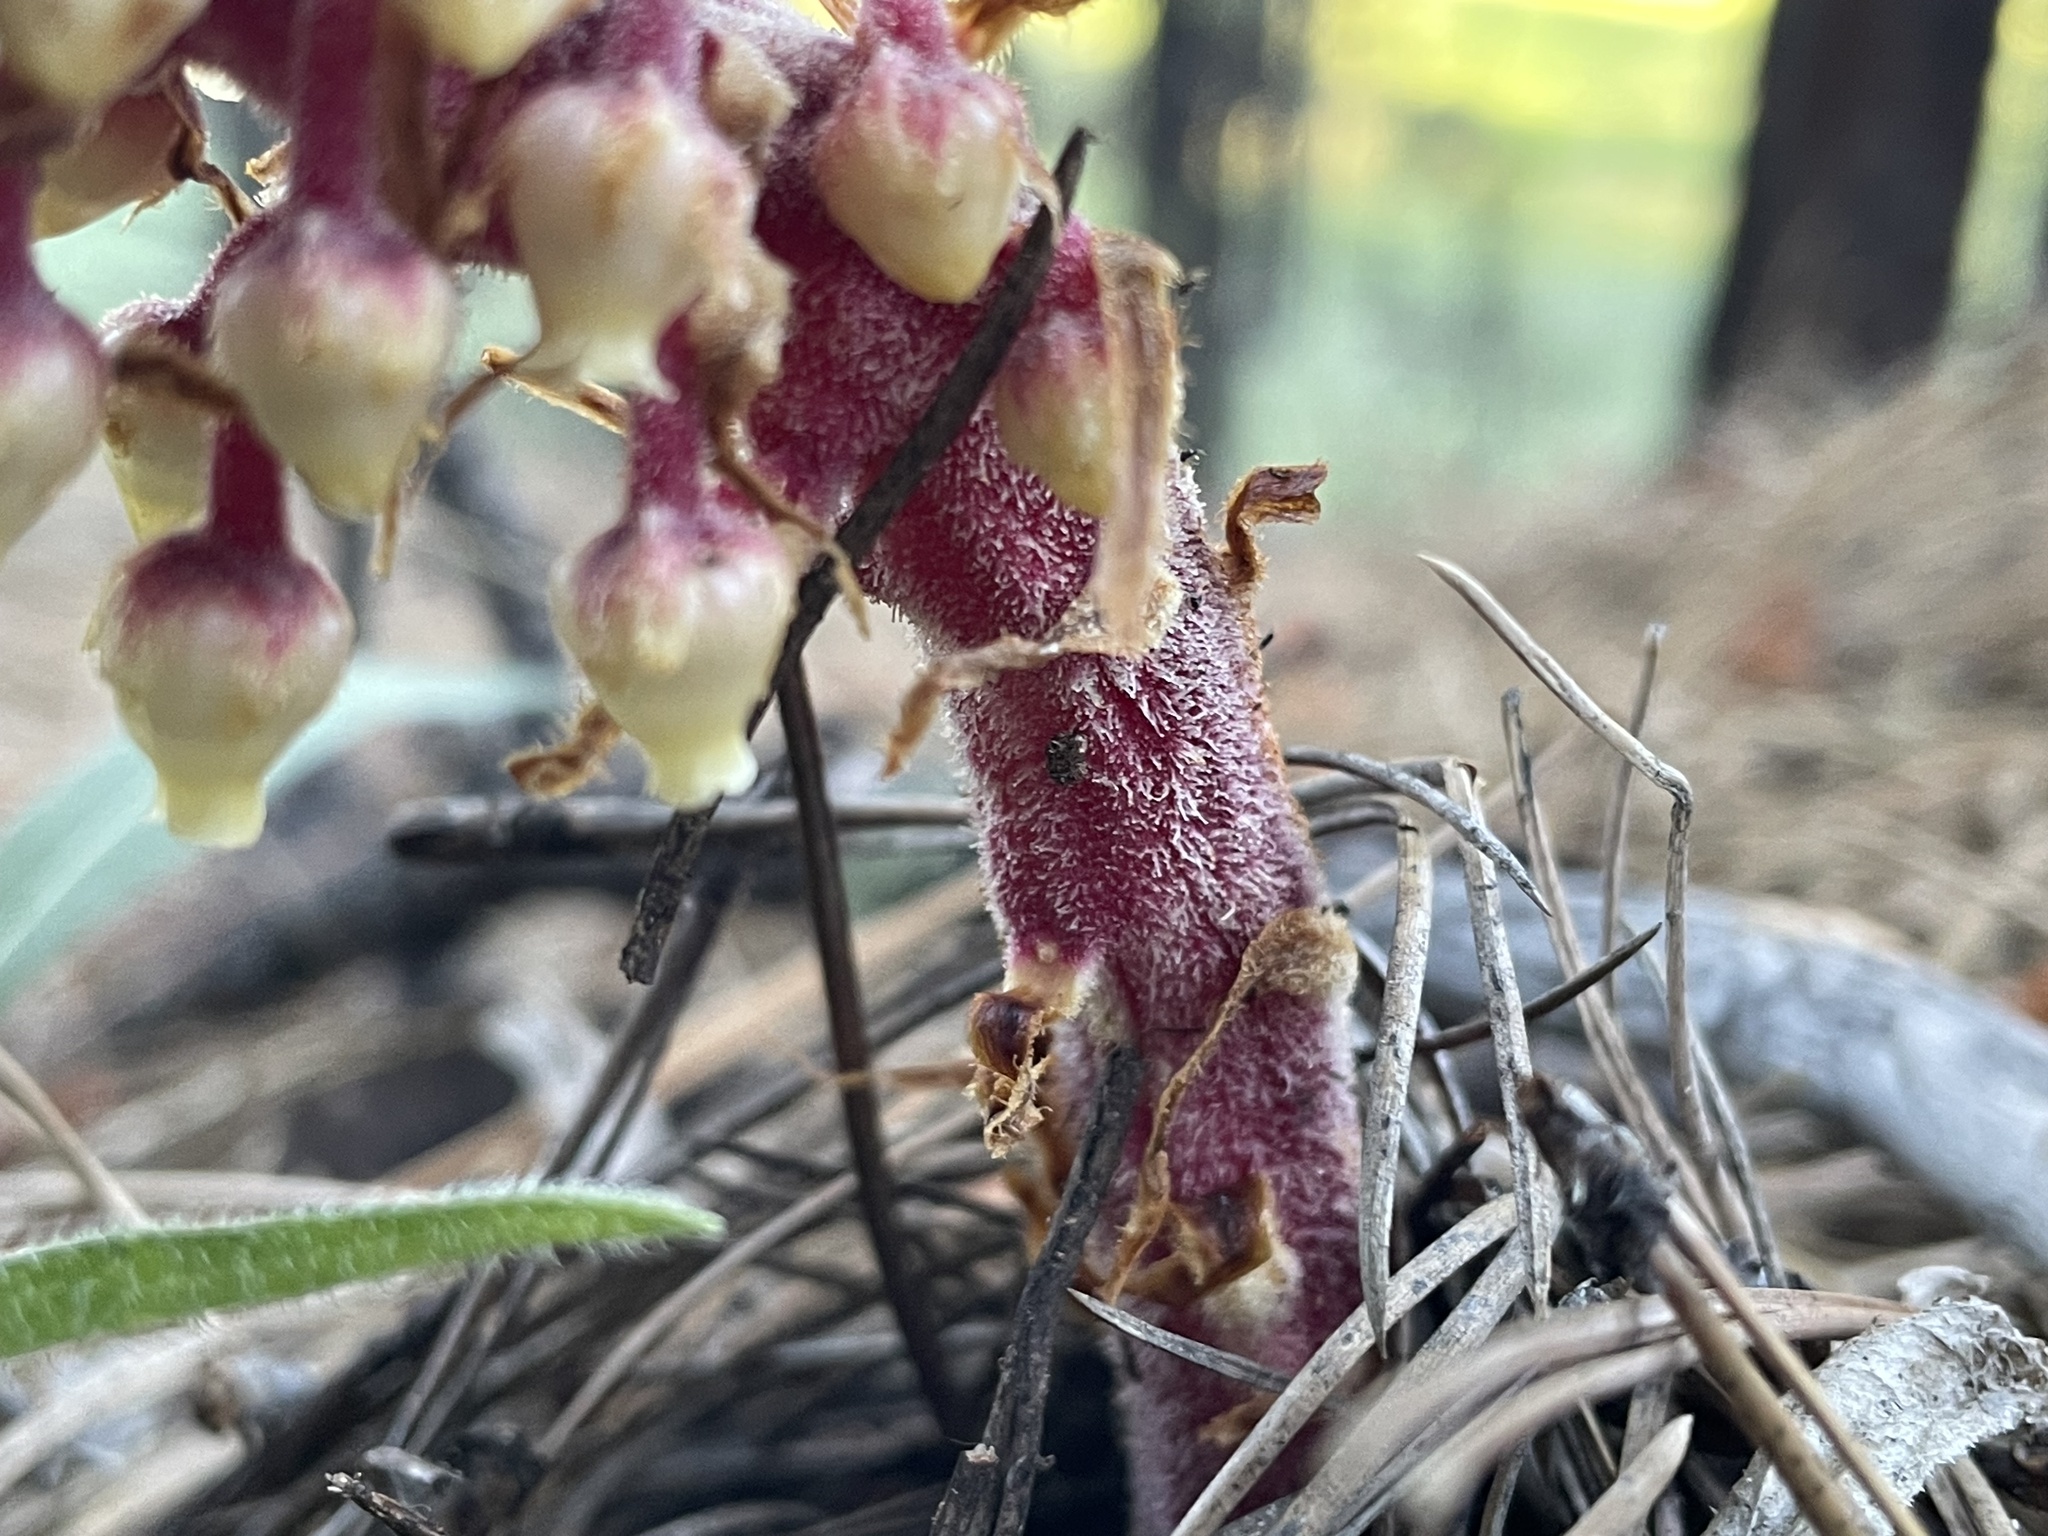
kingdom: Plantae
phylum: Tracheophyta
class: Magnoliopsida
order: Ericales
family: Ericaceae
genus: Pterospora
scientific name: Pterospora andromedea
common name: Giant bird's-nest
